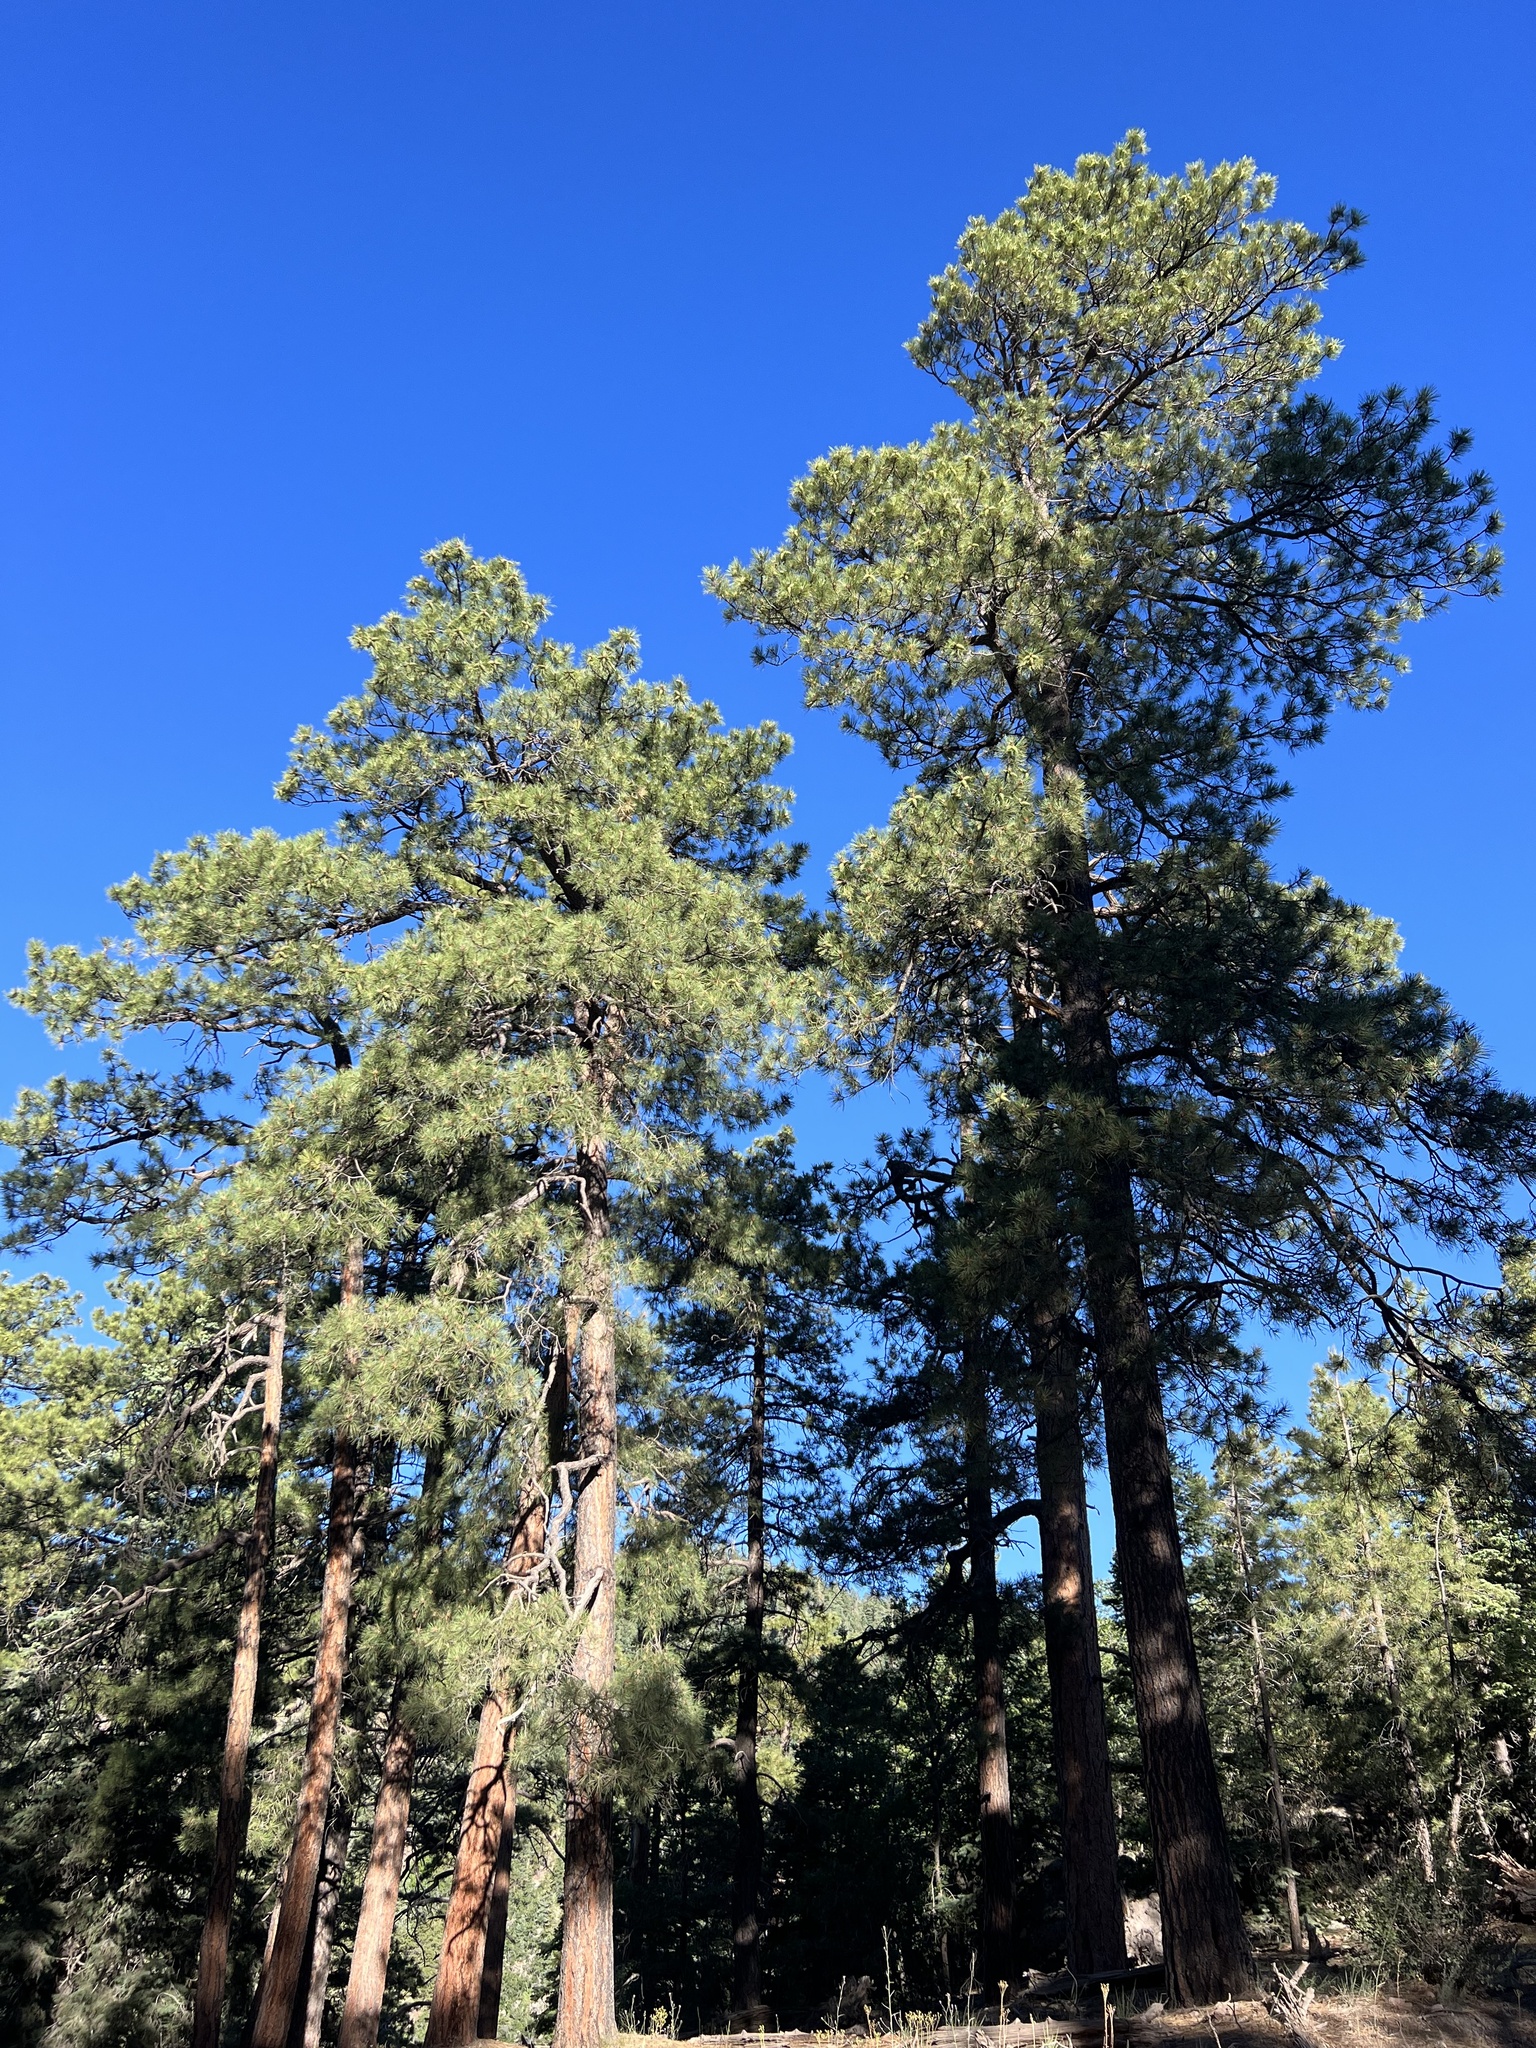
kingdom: Plantae
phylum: Tracheophyta
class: Pinopsida
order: Pinales
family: Pinaceae
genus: Pinus
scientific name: Pinus ponderosa
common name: Western yellow-pine
